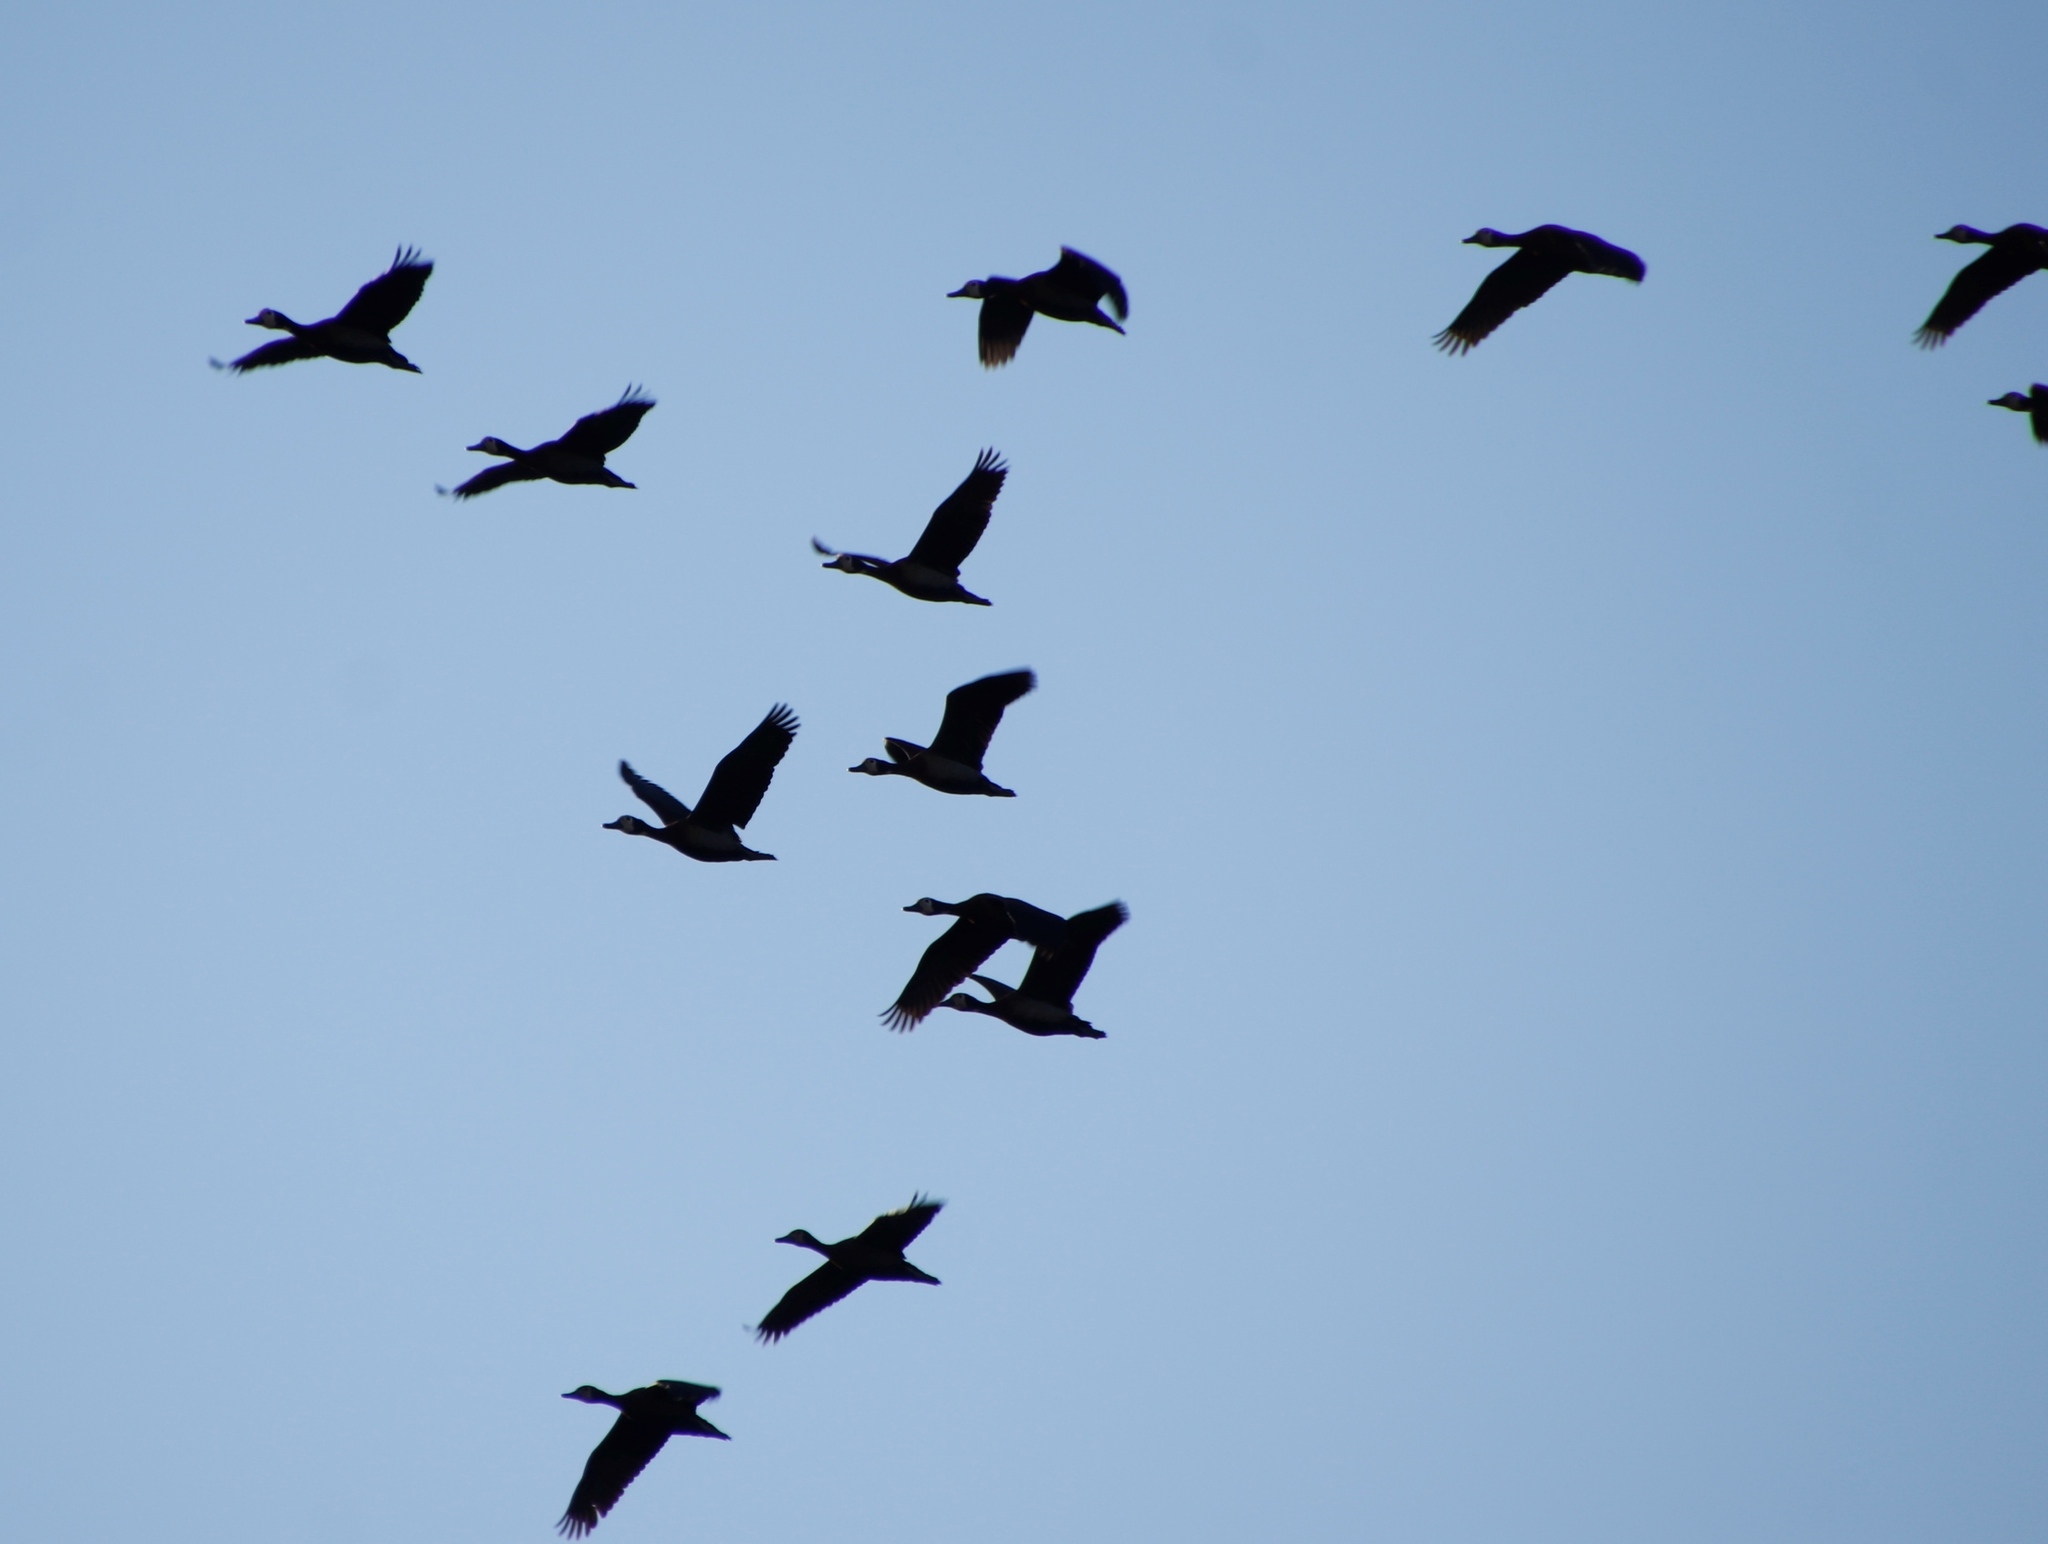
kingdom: Animalia
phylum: Chordata
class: Aves
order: Anseriformes
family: Anatidae
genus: Dendrocygna
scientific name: Dendrocygna viduata
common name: White-faced whistling duck
